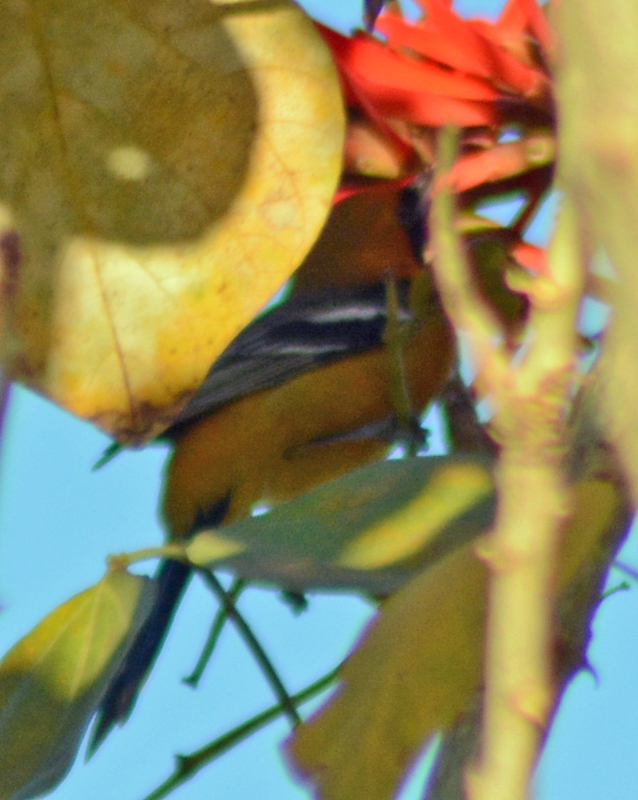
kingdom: Animalia
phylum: Chordata
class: Aves
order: Passeriformes
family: Icteridae
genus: Icterus
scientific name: Icterus cucullatus
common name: Hooded oriole
